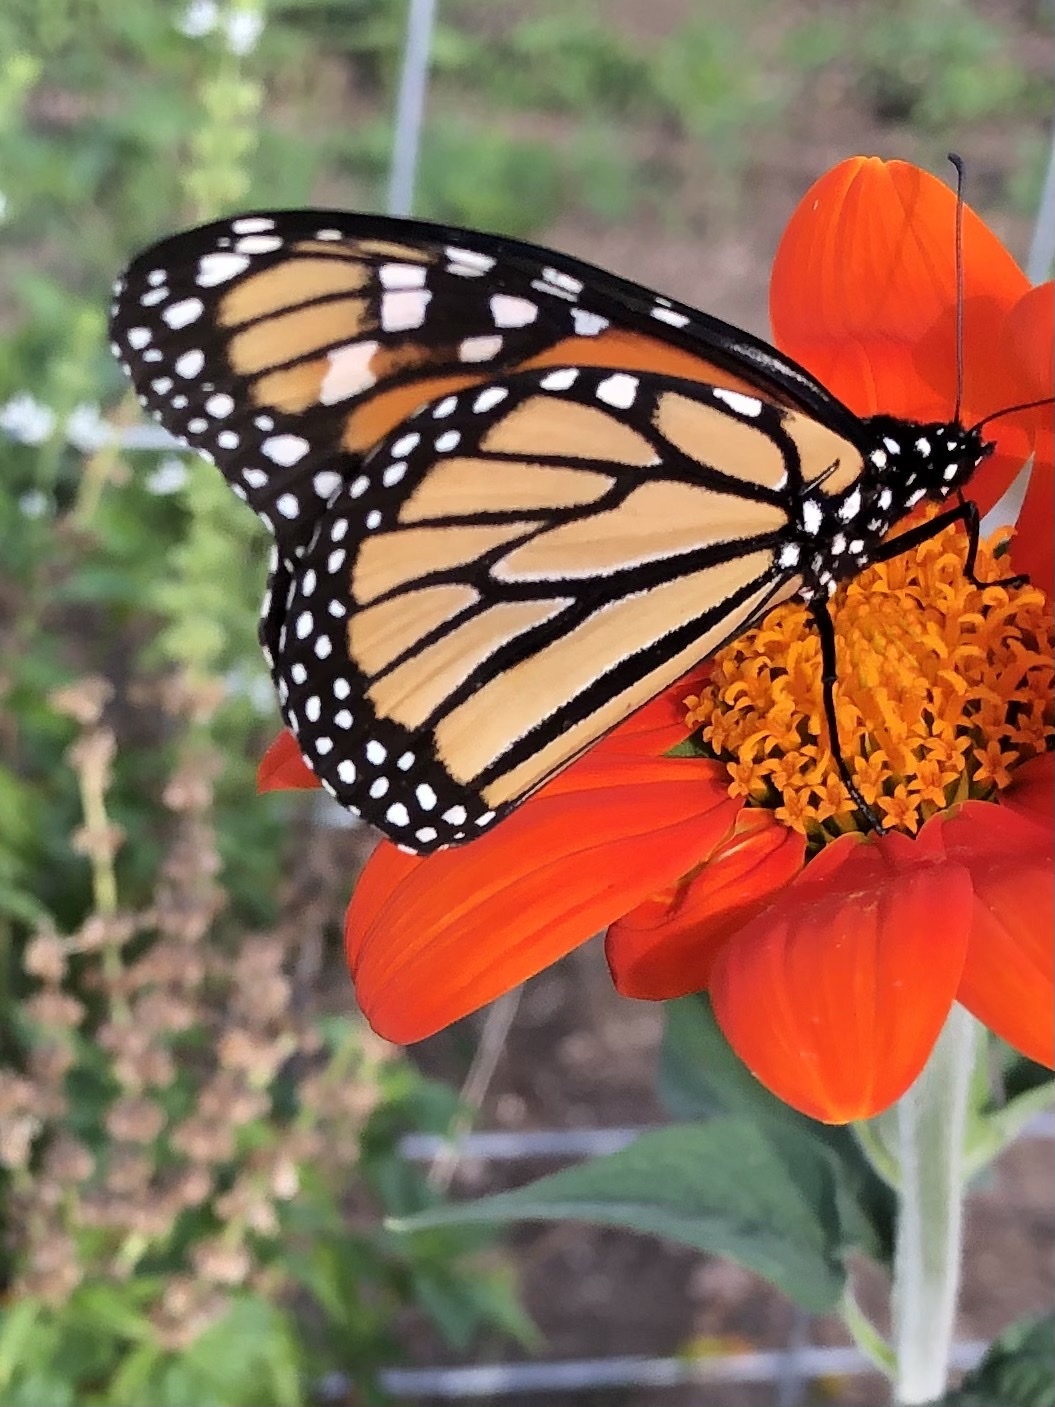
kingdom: Animalia
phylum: Arthropoda
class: Insecta
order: Lepidoptera
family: Nymphalidae
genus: Danaus
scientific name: Danaus plexippus
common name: Monarch
